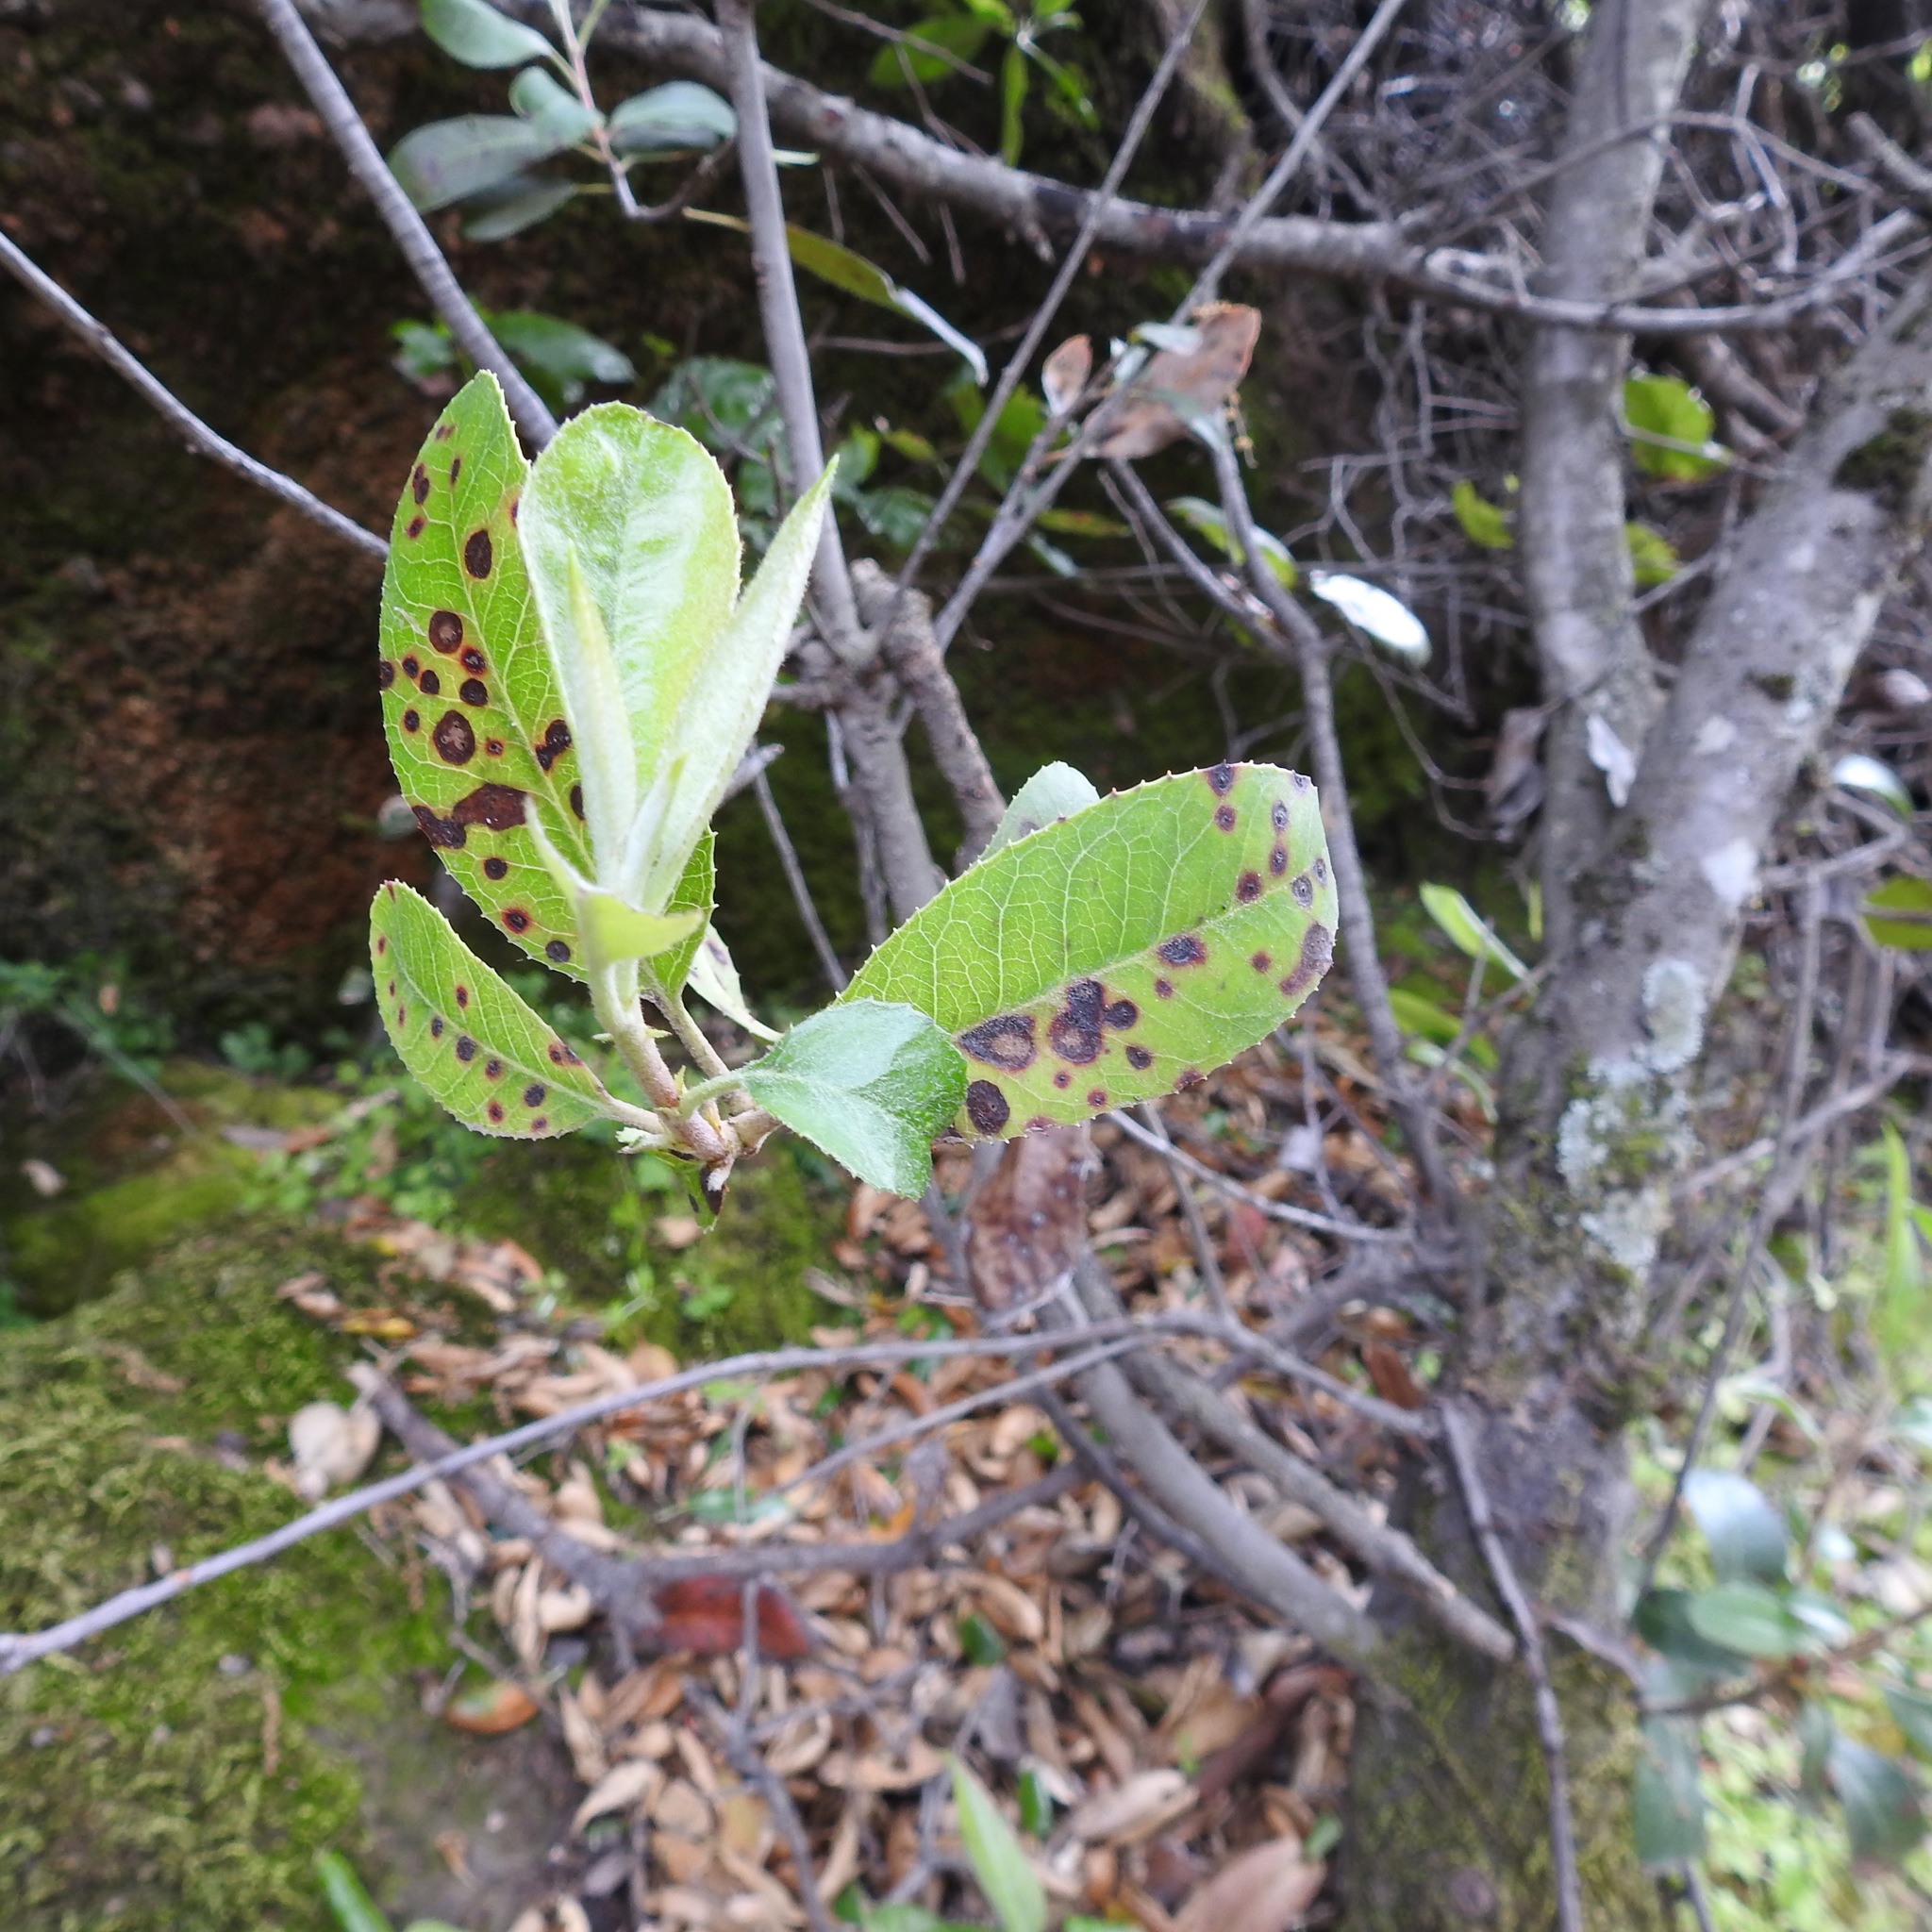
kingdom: Plantae
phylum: Tracheophyta
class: Magnoliopsida
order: Rosales
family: Rosaceae
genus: Heteromeles
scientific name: Heteromeles arbutifolia
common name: California-holly
